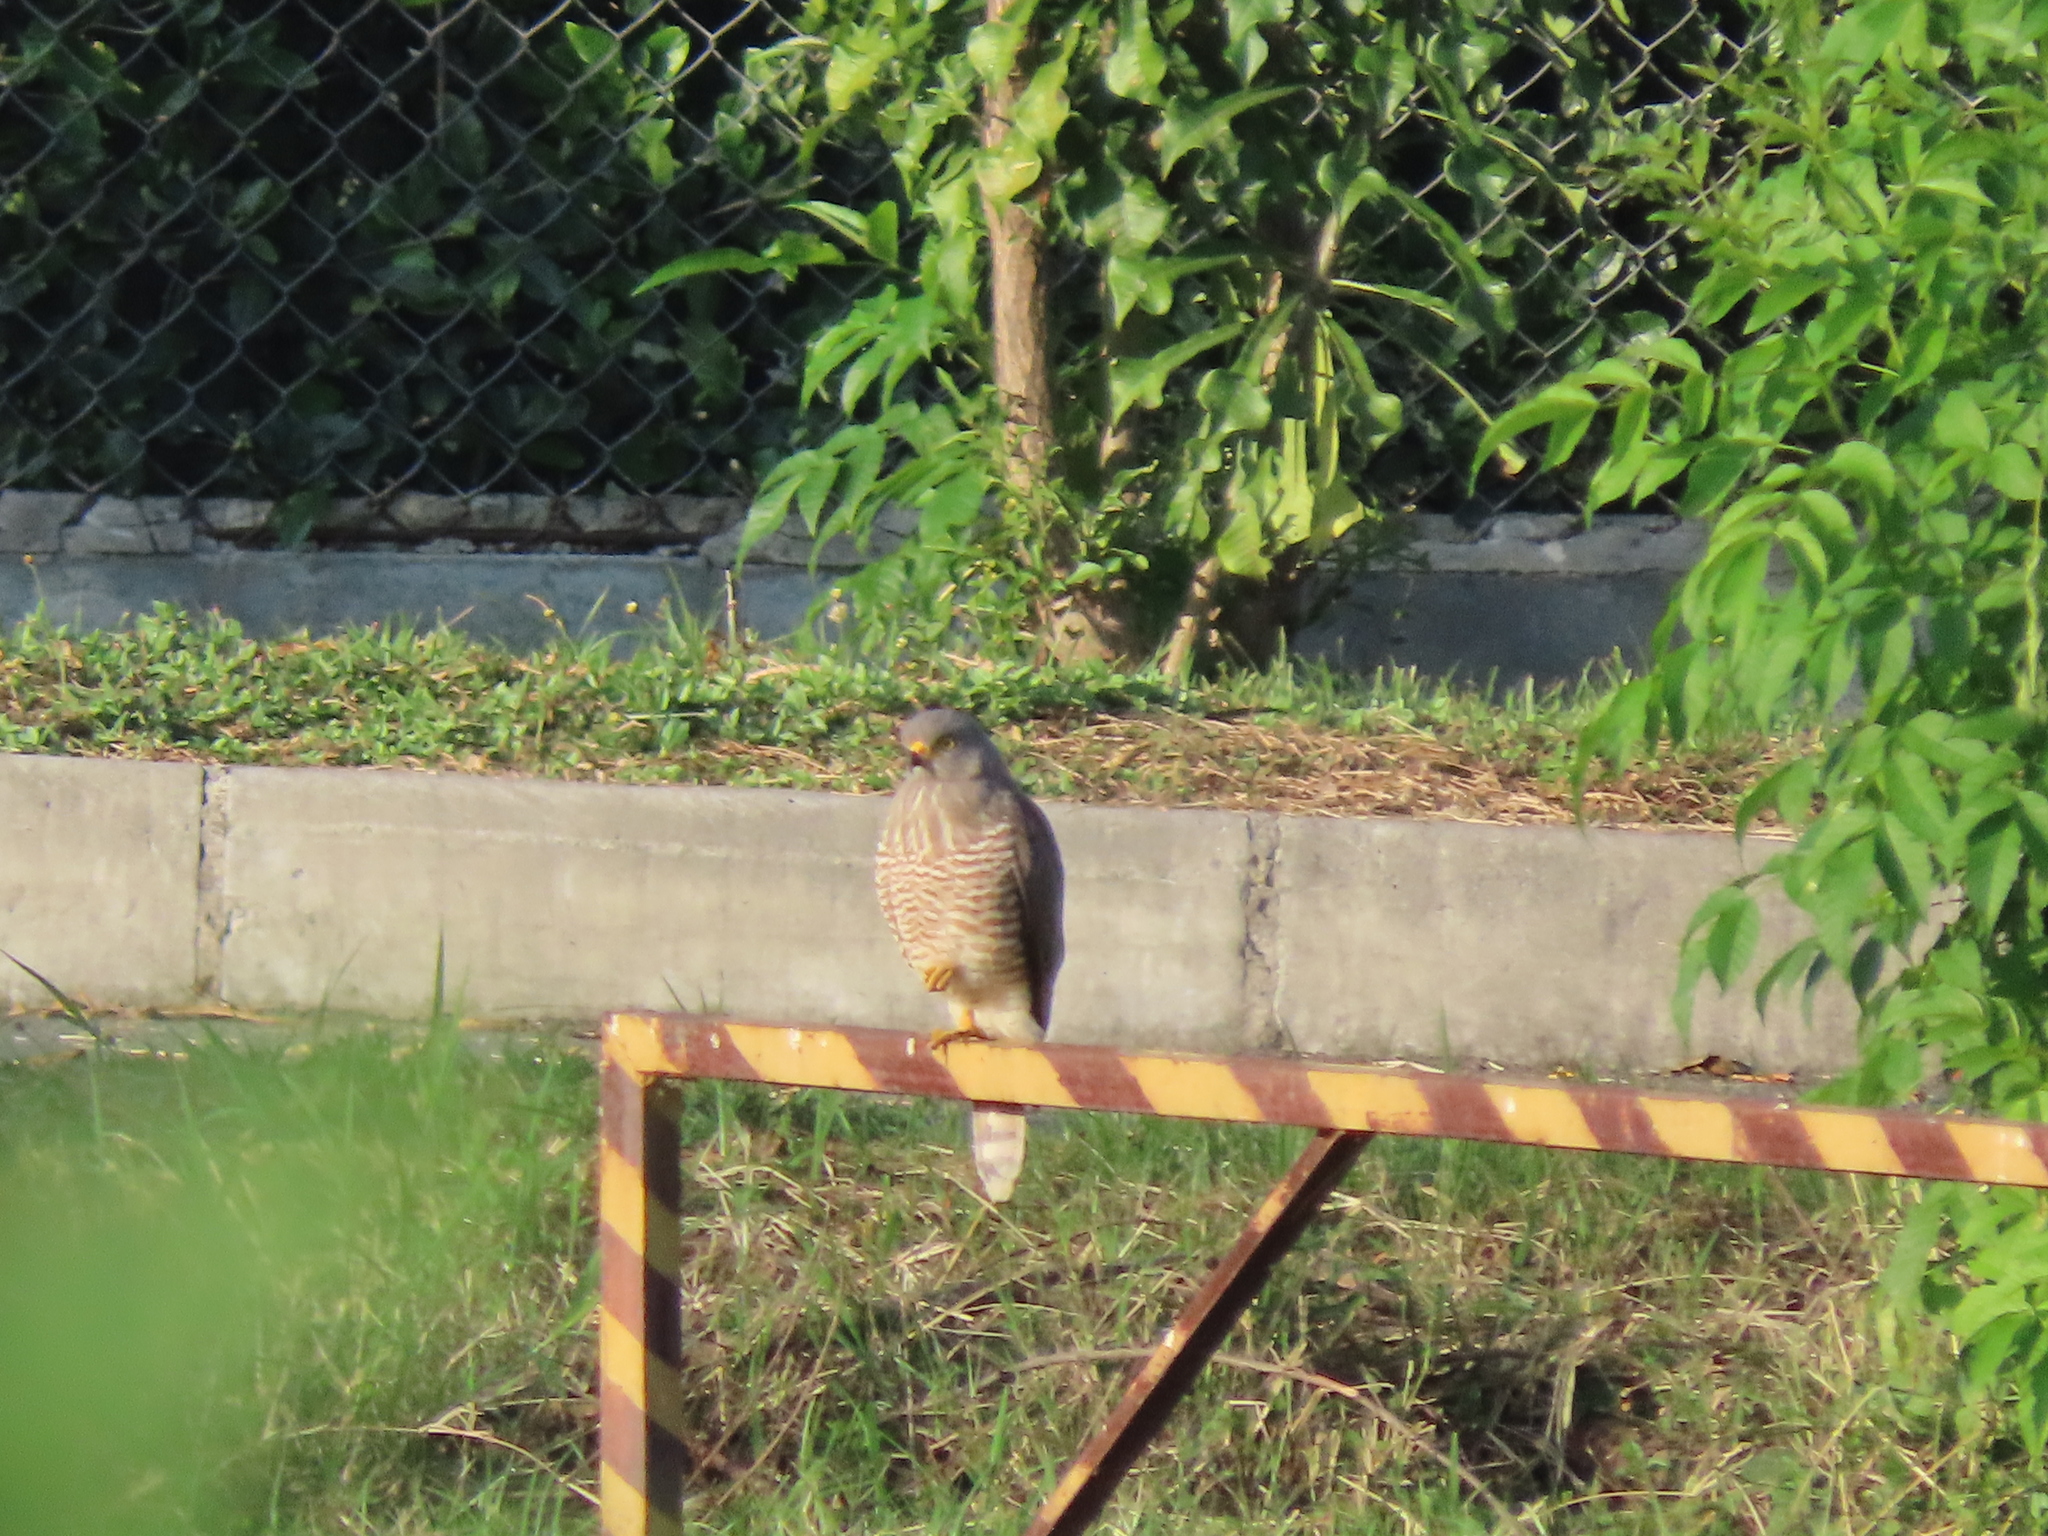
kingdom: Animalia
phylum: Chordata
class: Aves
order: Accipitriformes
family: Accipitridae
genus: Rupornis
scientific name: Rupornis magnirostris
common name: Roadside hawk
